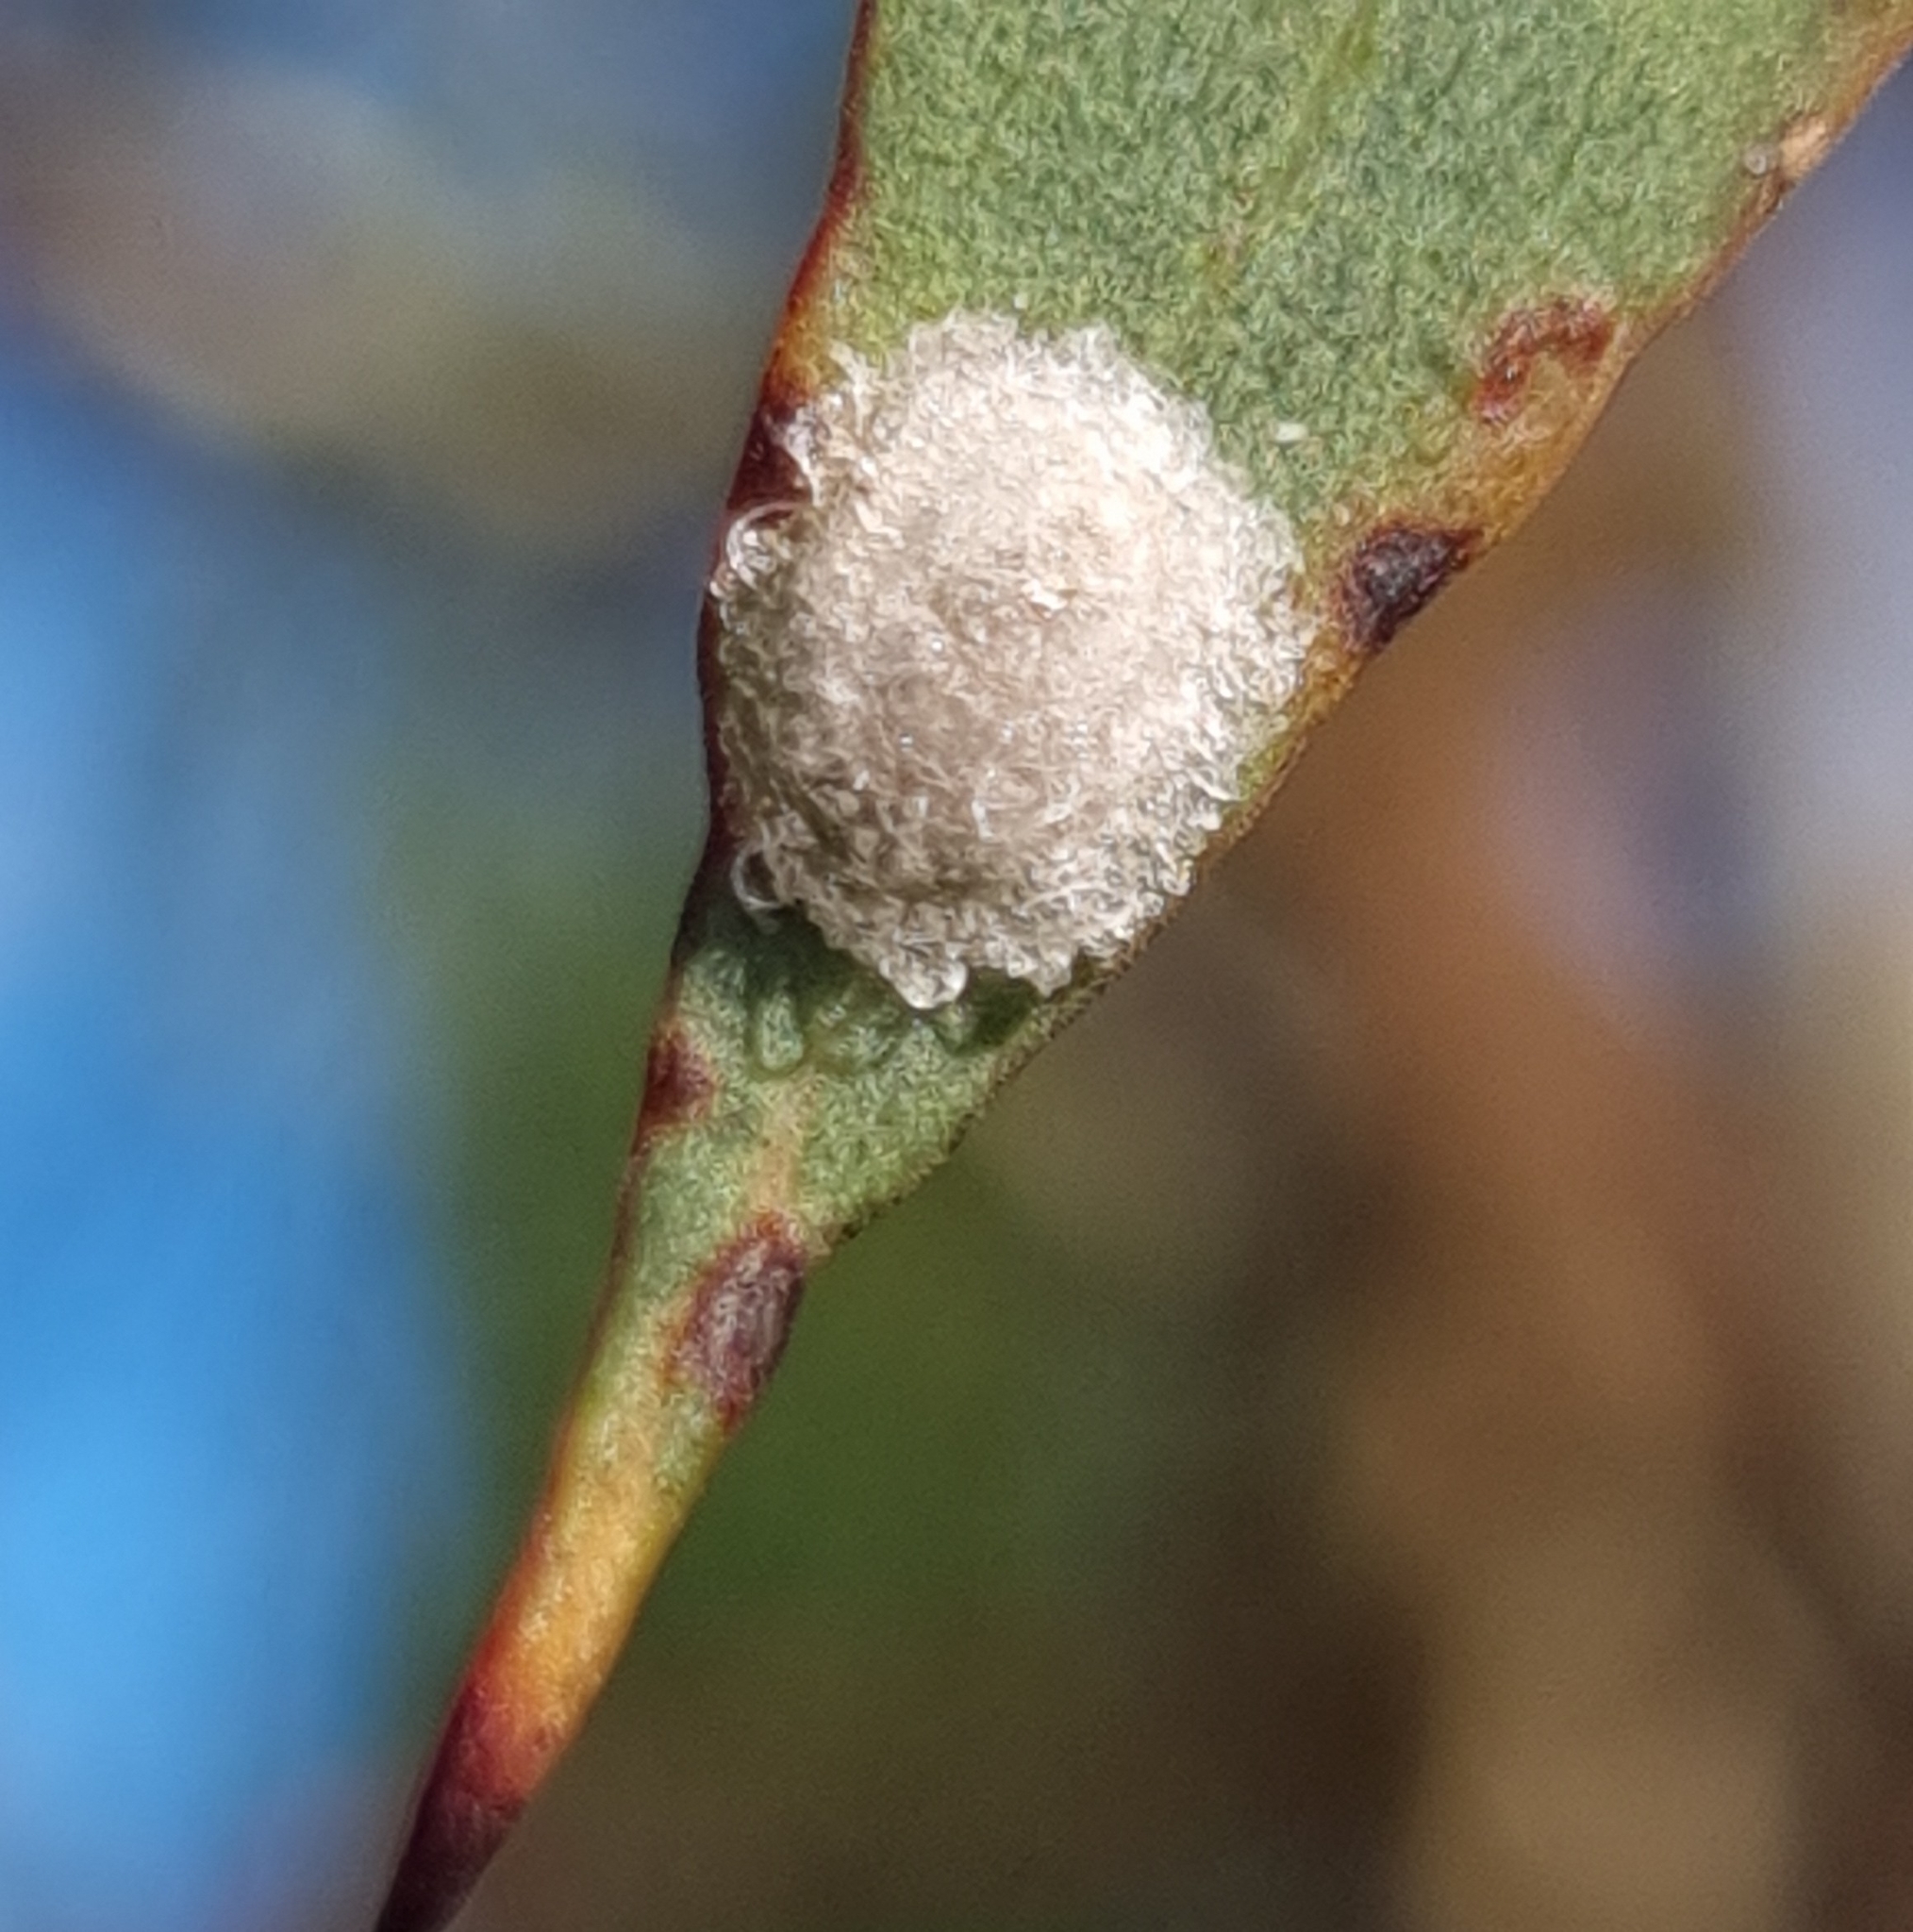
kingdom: Animalia
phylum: Arthropoda
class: Insecta
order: Hemiptera
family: Aphalaridae
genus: Glycaspis
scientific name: Glycaspis
